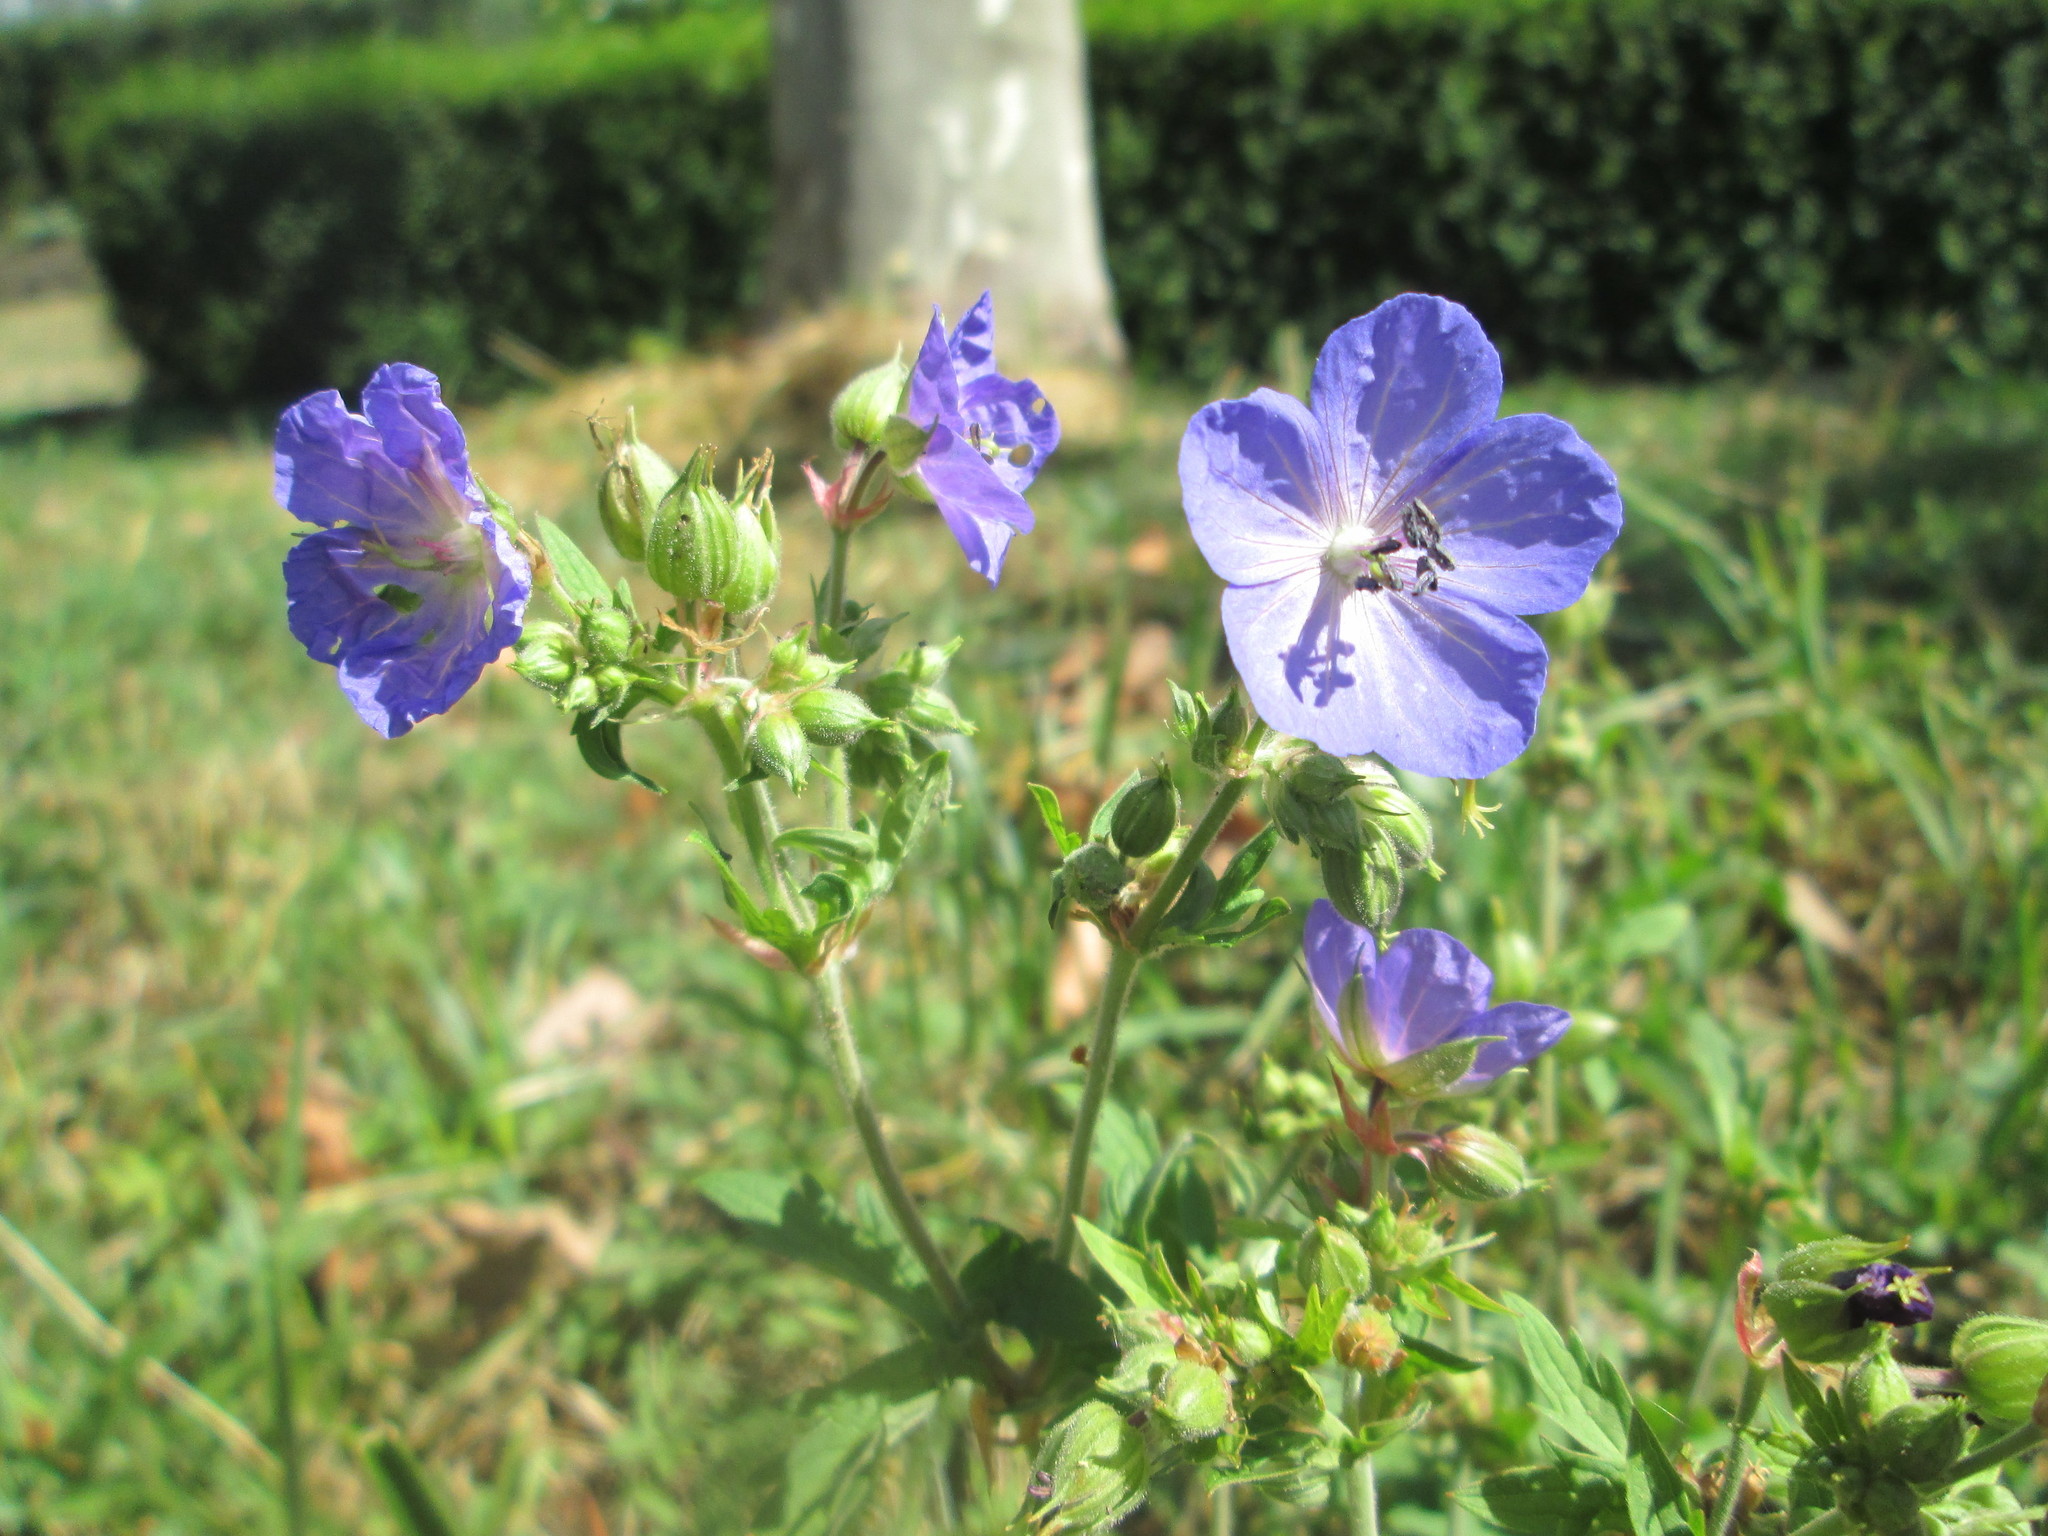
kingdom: Plantae
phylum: Tracheophyta
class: Magnoliopsida
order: Geraniales
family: Geraniaceae
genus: Geranium
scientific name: Geranium pratense
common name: Meadow crane's-bill
